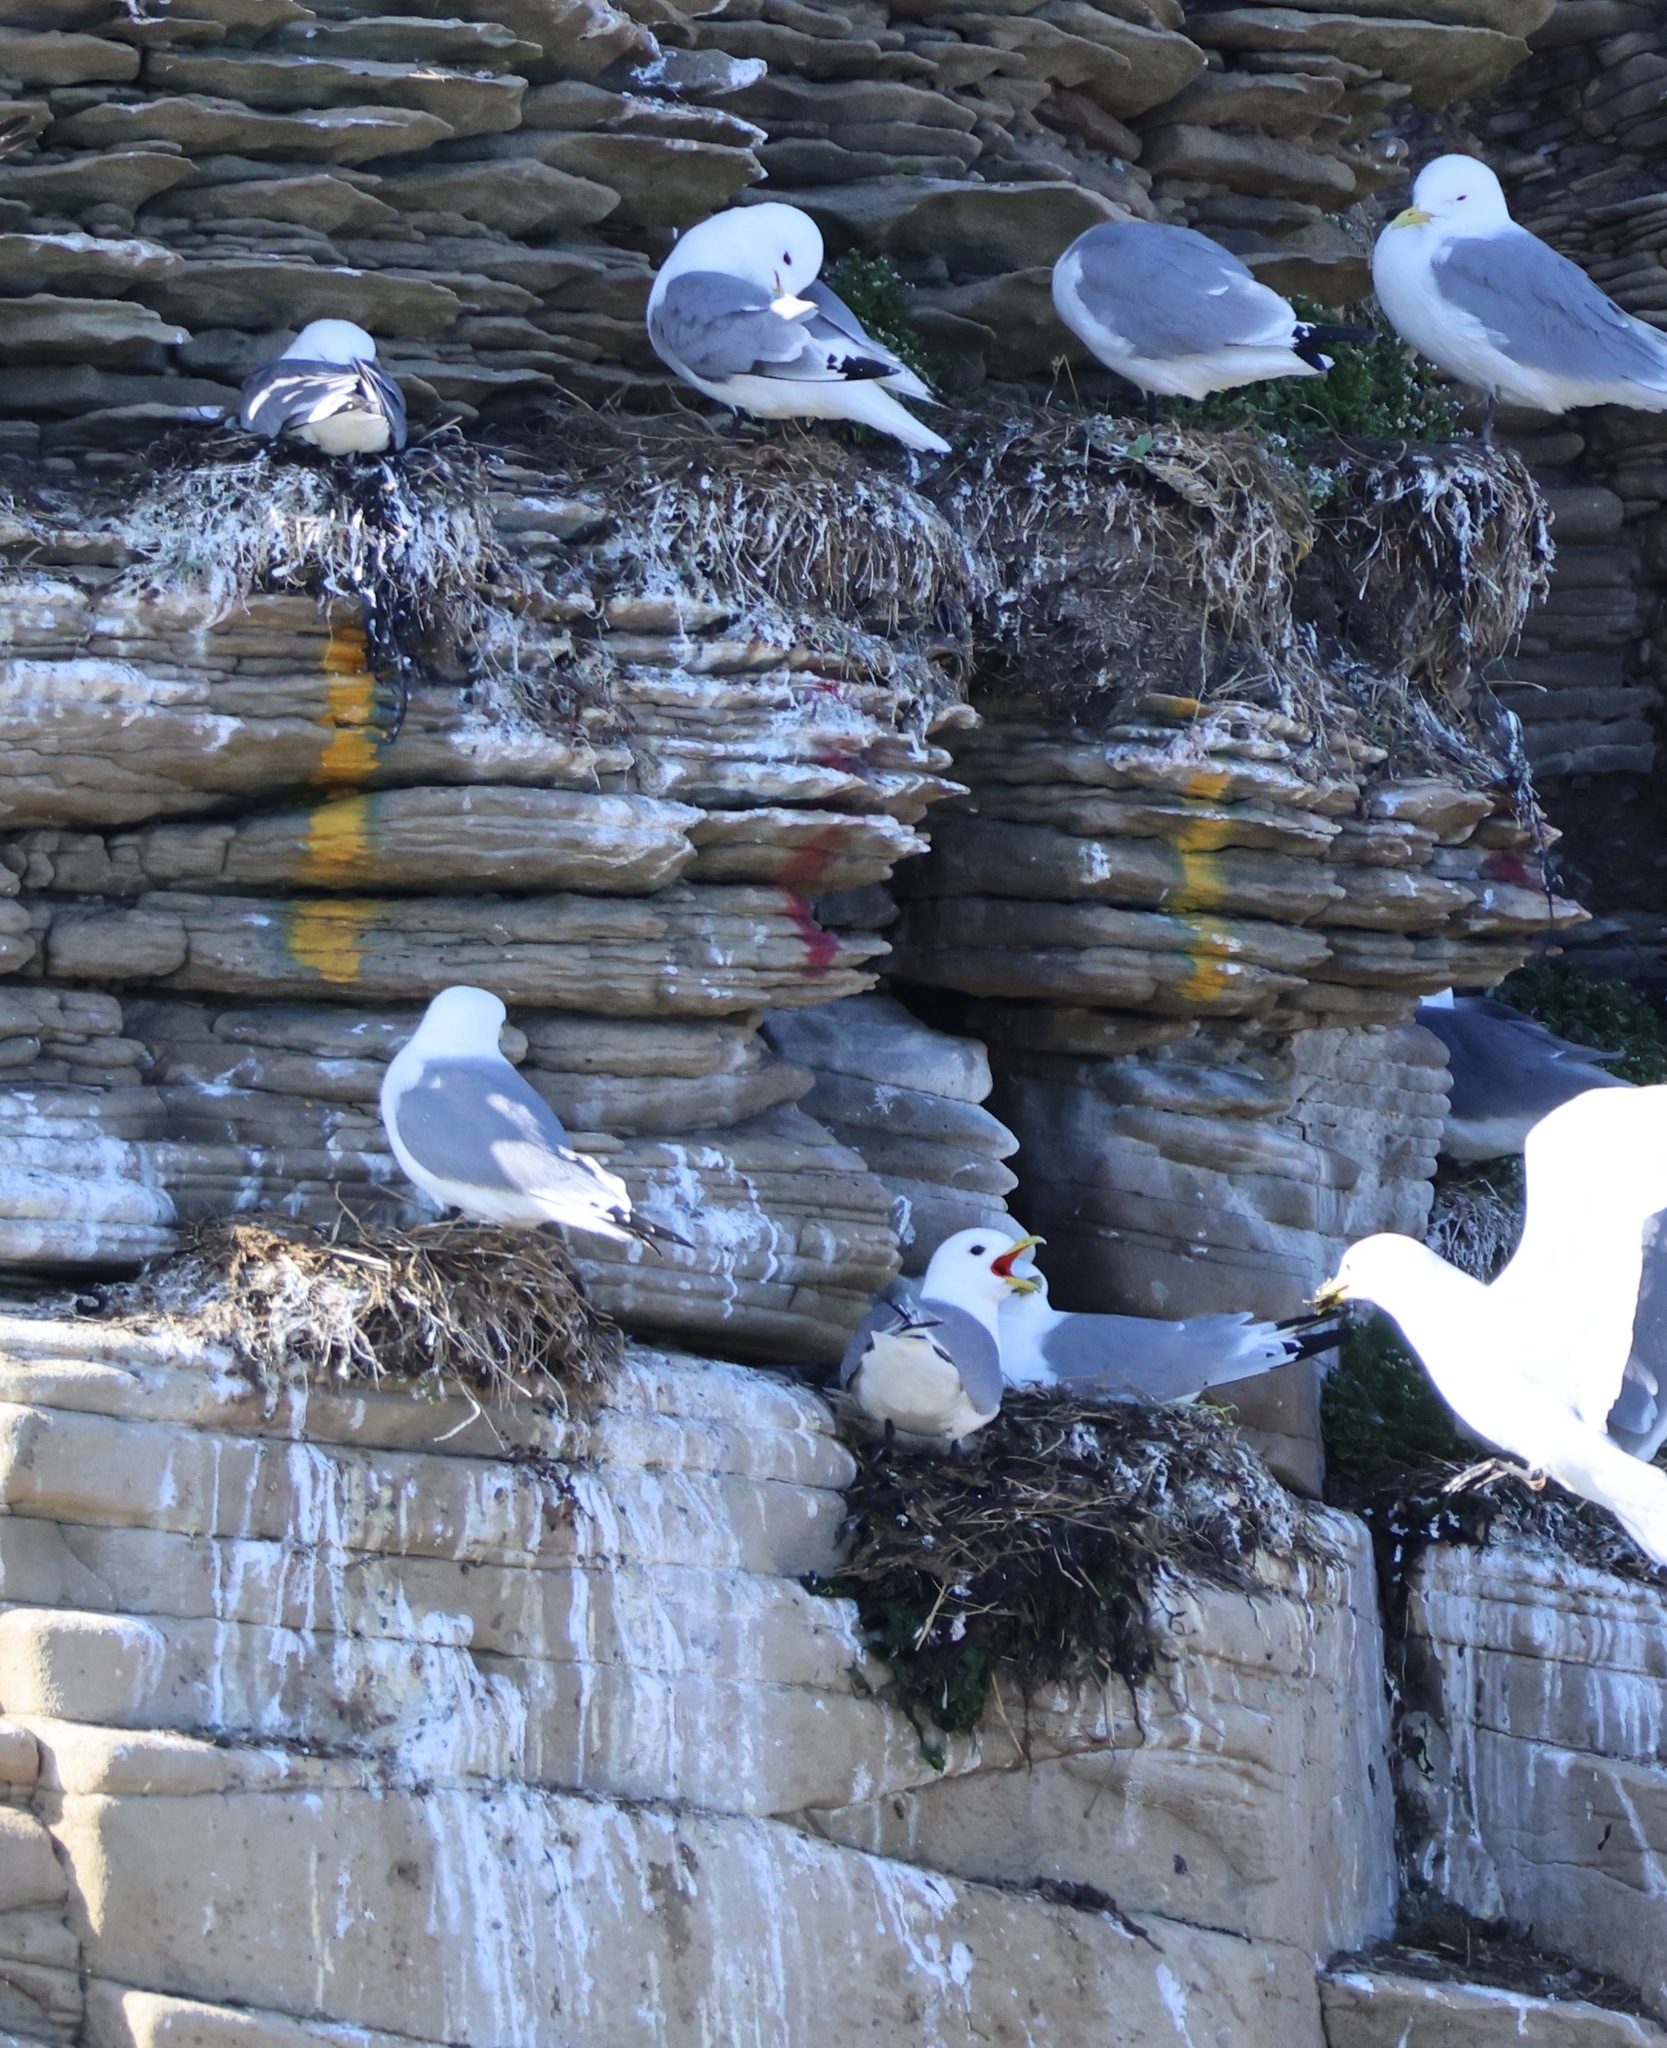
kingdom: Animalia
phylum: Chordata
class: Aves
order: Charadriiformes
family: Laridae
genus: Rissa
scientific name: Rissa tridactyla
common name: Black-legged kittiwake
